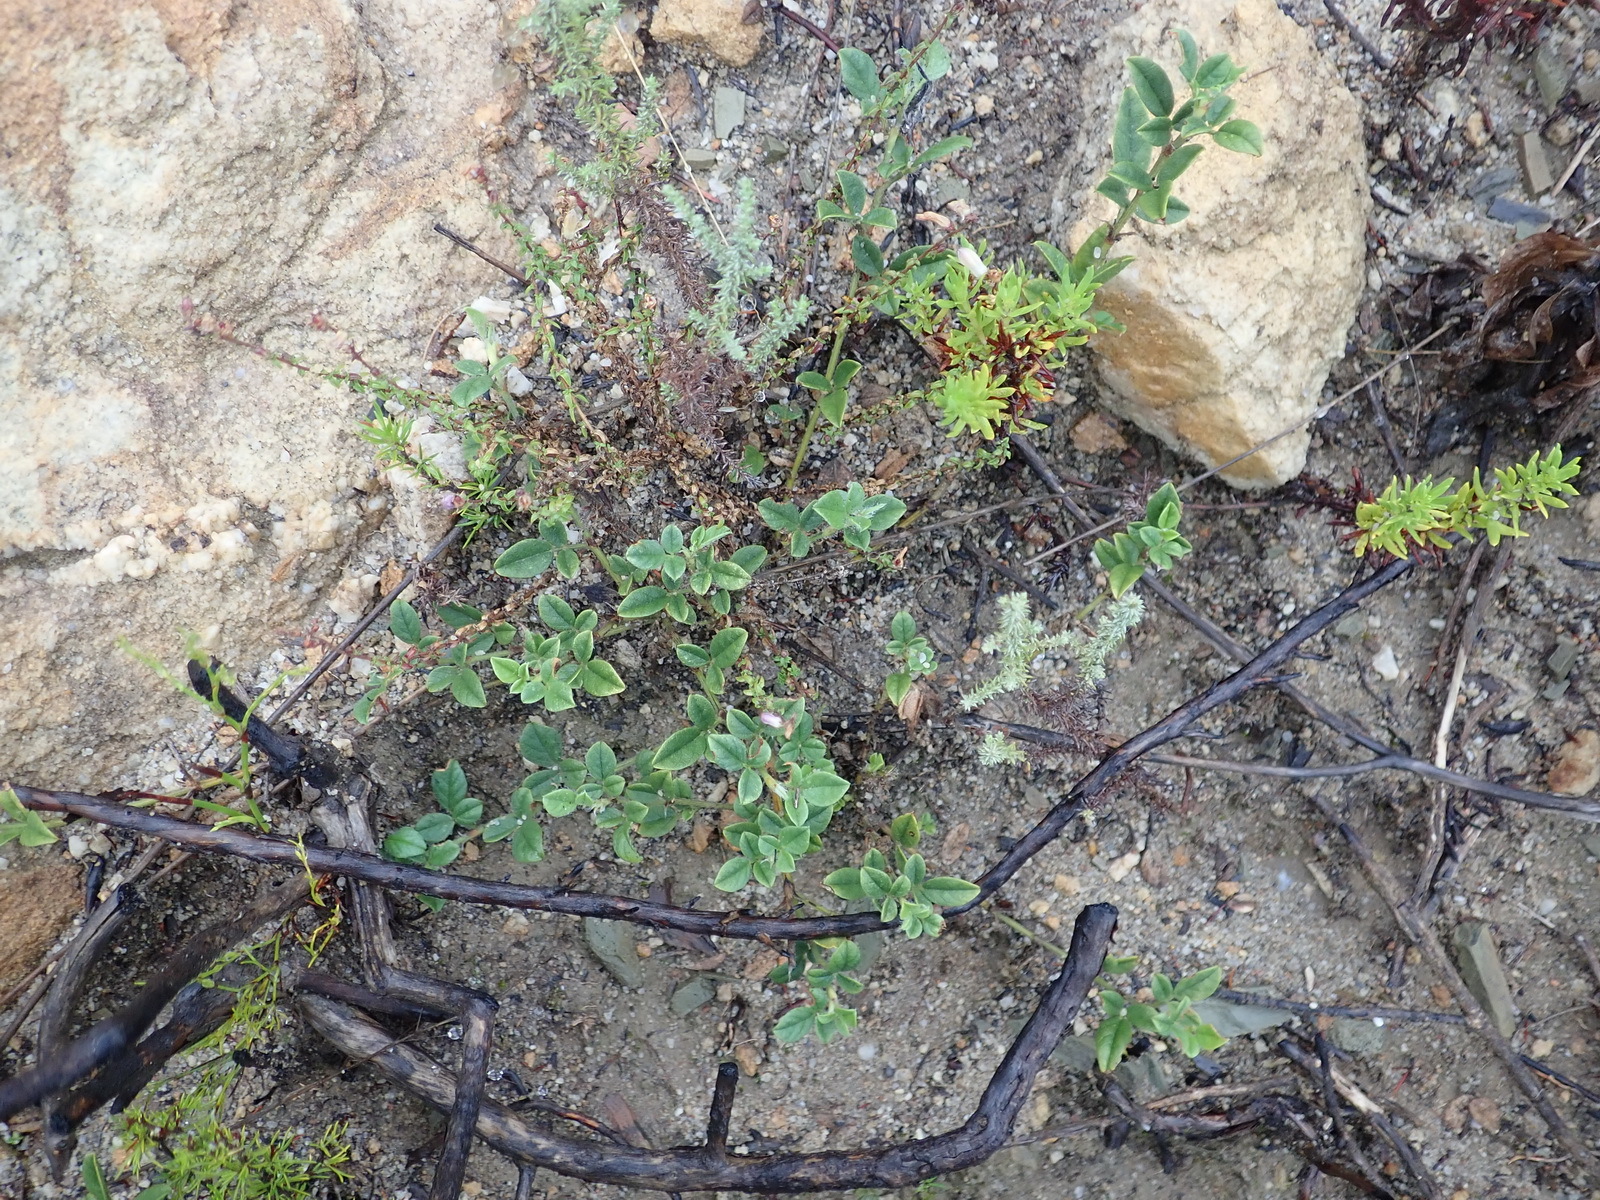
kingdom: Plantae
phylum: Tracheophyta
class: Magnoliopsida
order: Fabales
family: Fabaceae
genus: Psoralea
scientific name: Psoralea swartbergensis
